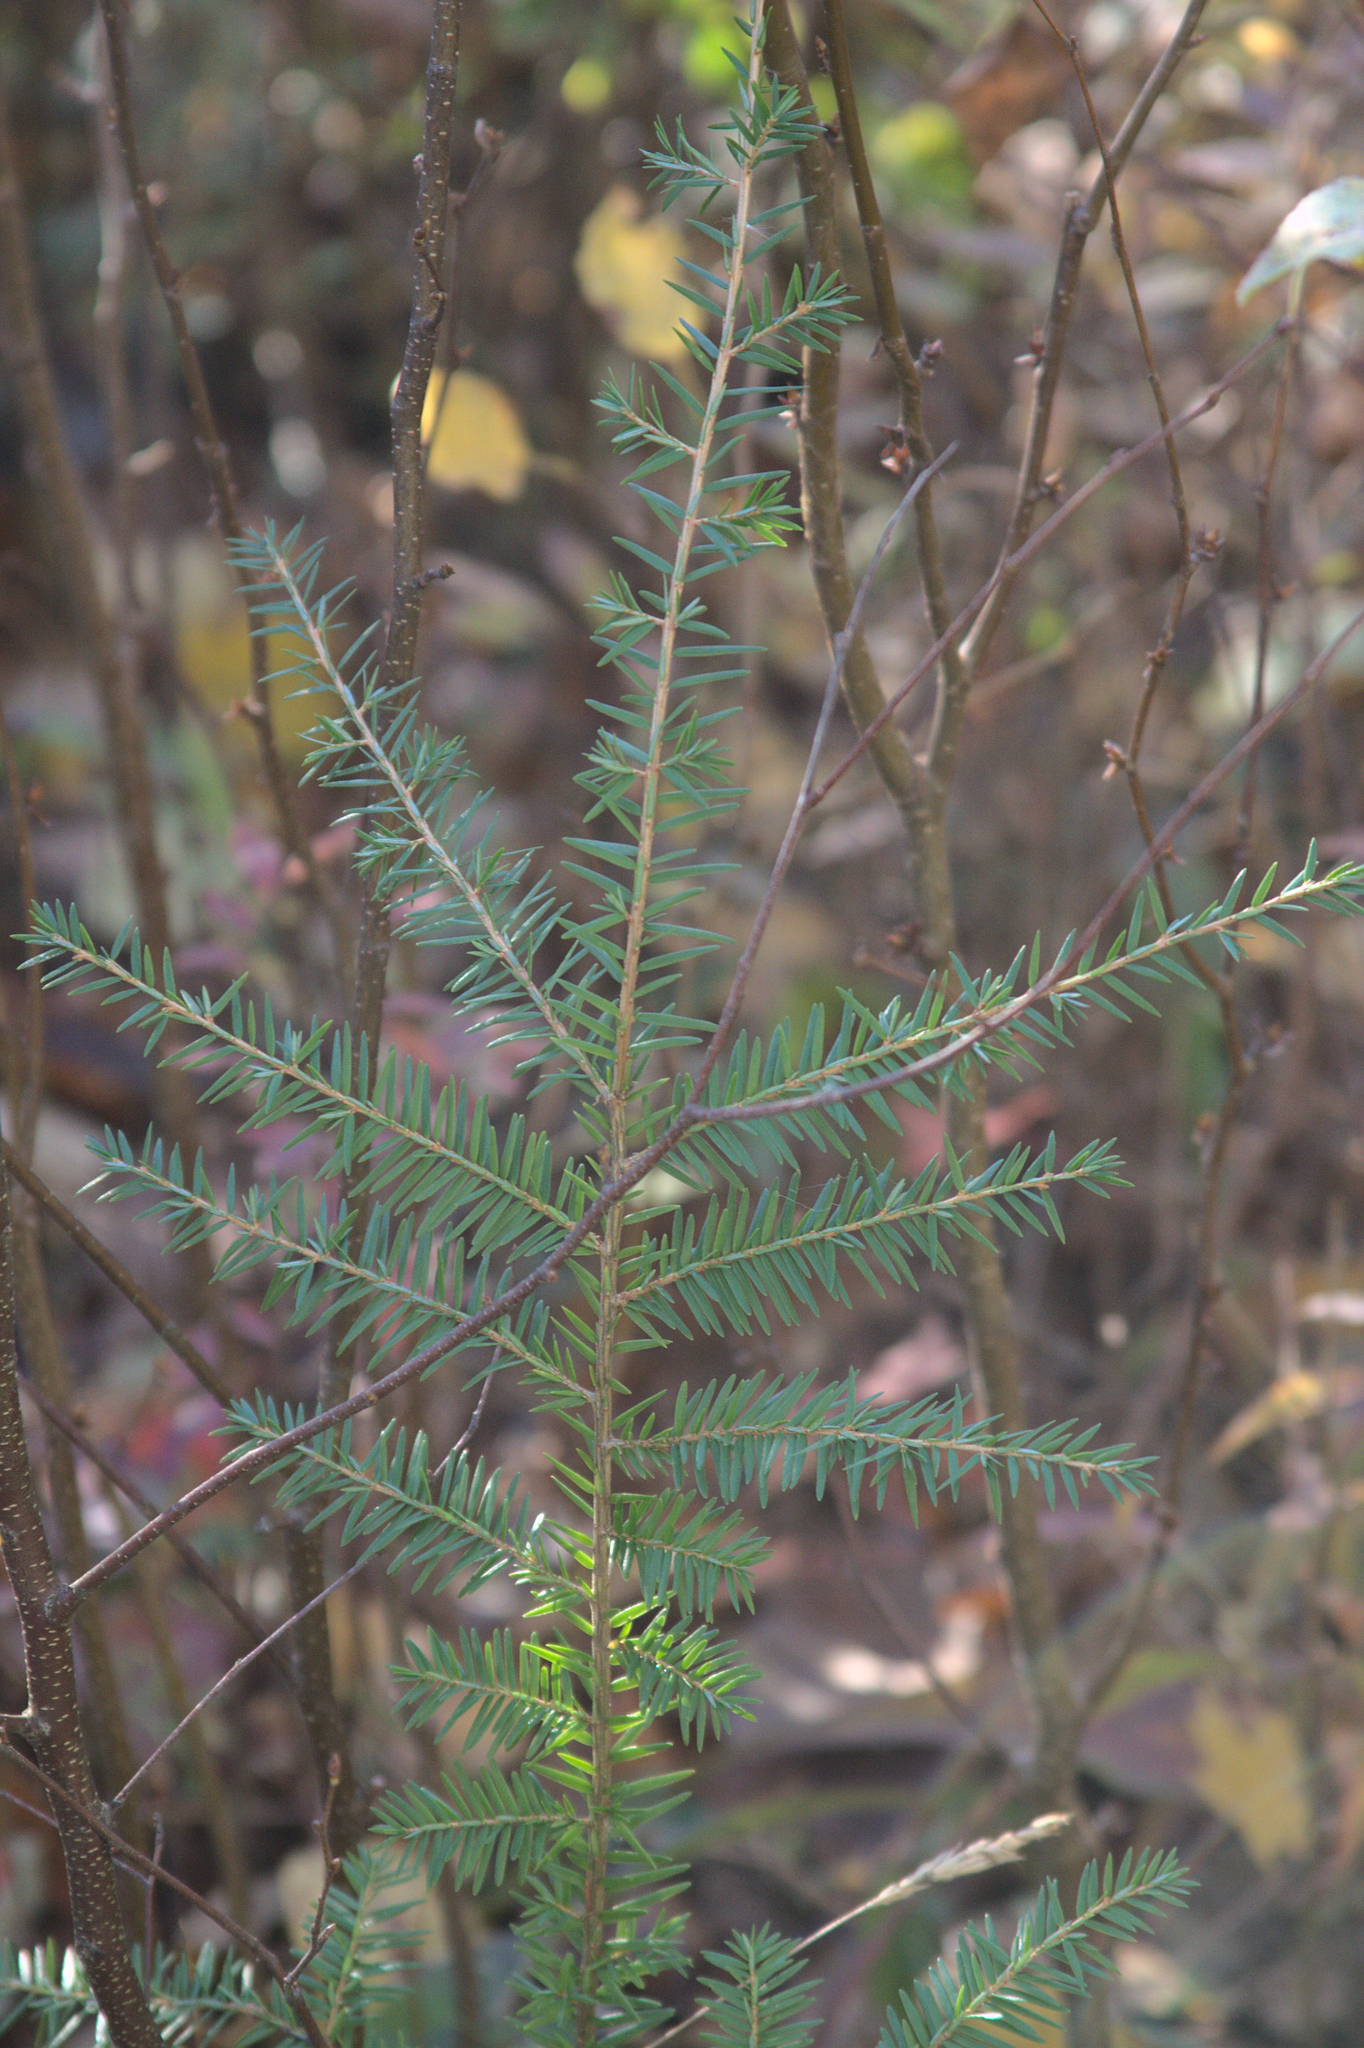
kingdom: Plantae
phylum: Tracheophyta
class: Pinopsida
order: Pinales
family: Pinaceae
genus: Tsuga
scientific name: Tsuga canadensis
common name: Eastern hemlock
